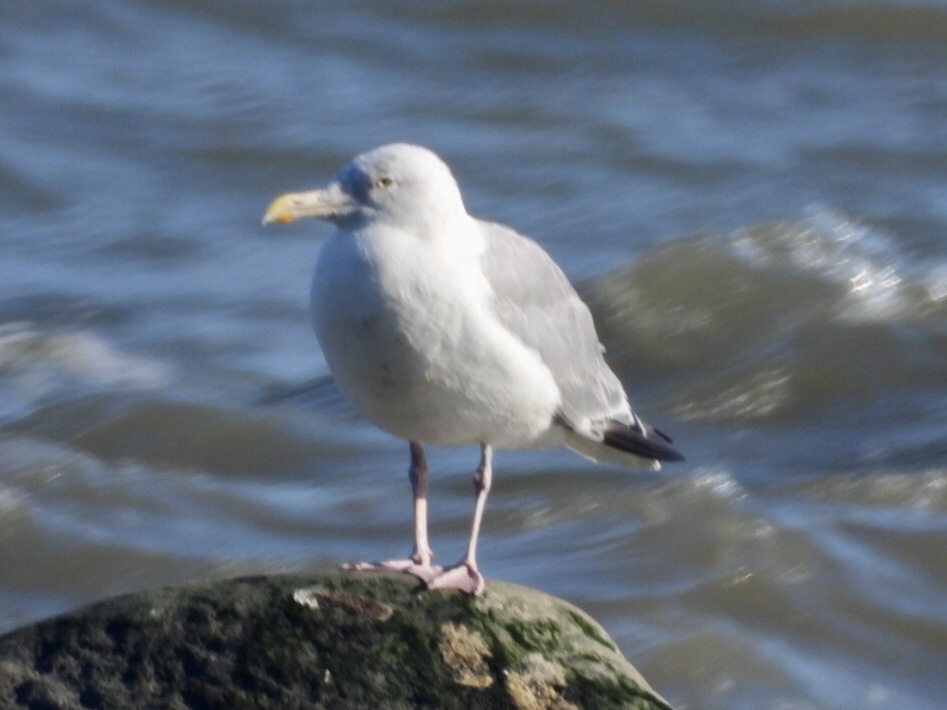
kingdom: Animalia
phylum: Chordata
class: Aves
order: Charadriiformes
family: Laridae
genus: Larus
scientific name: Larus argentatus
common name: Herring gull
